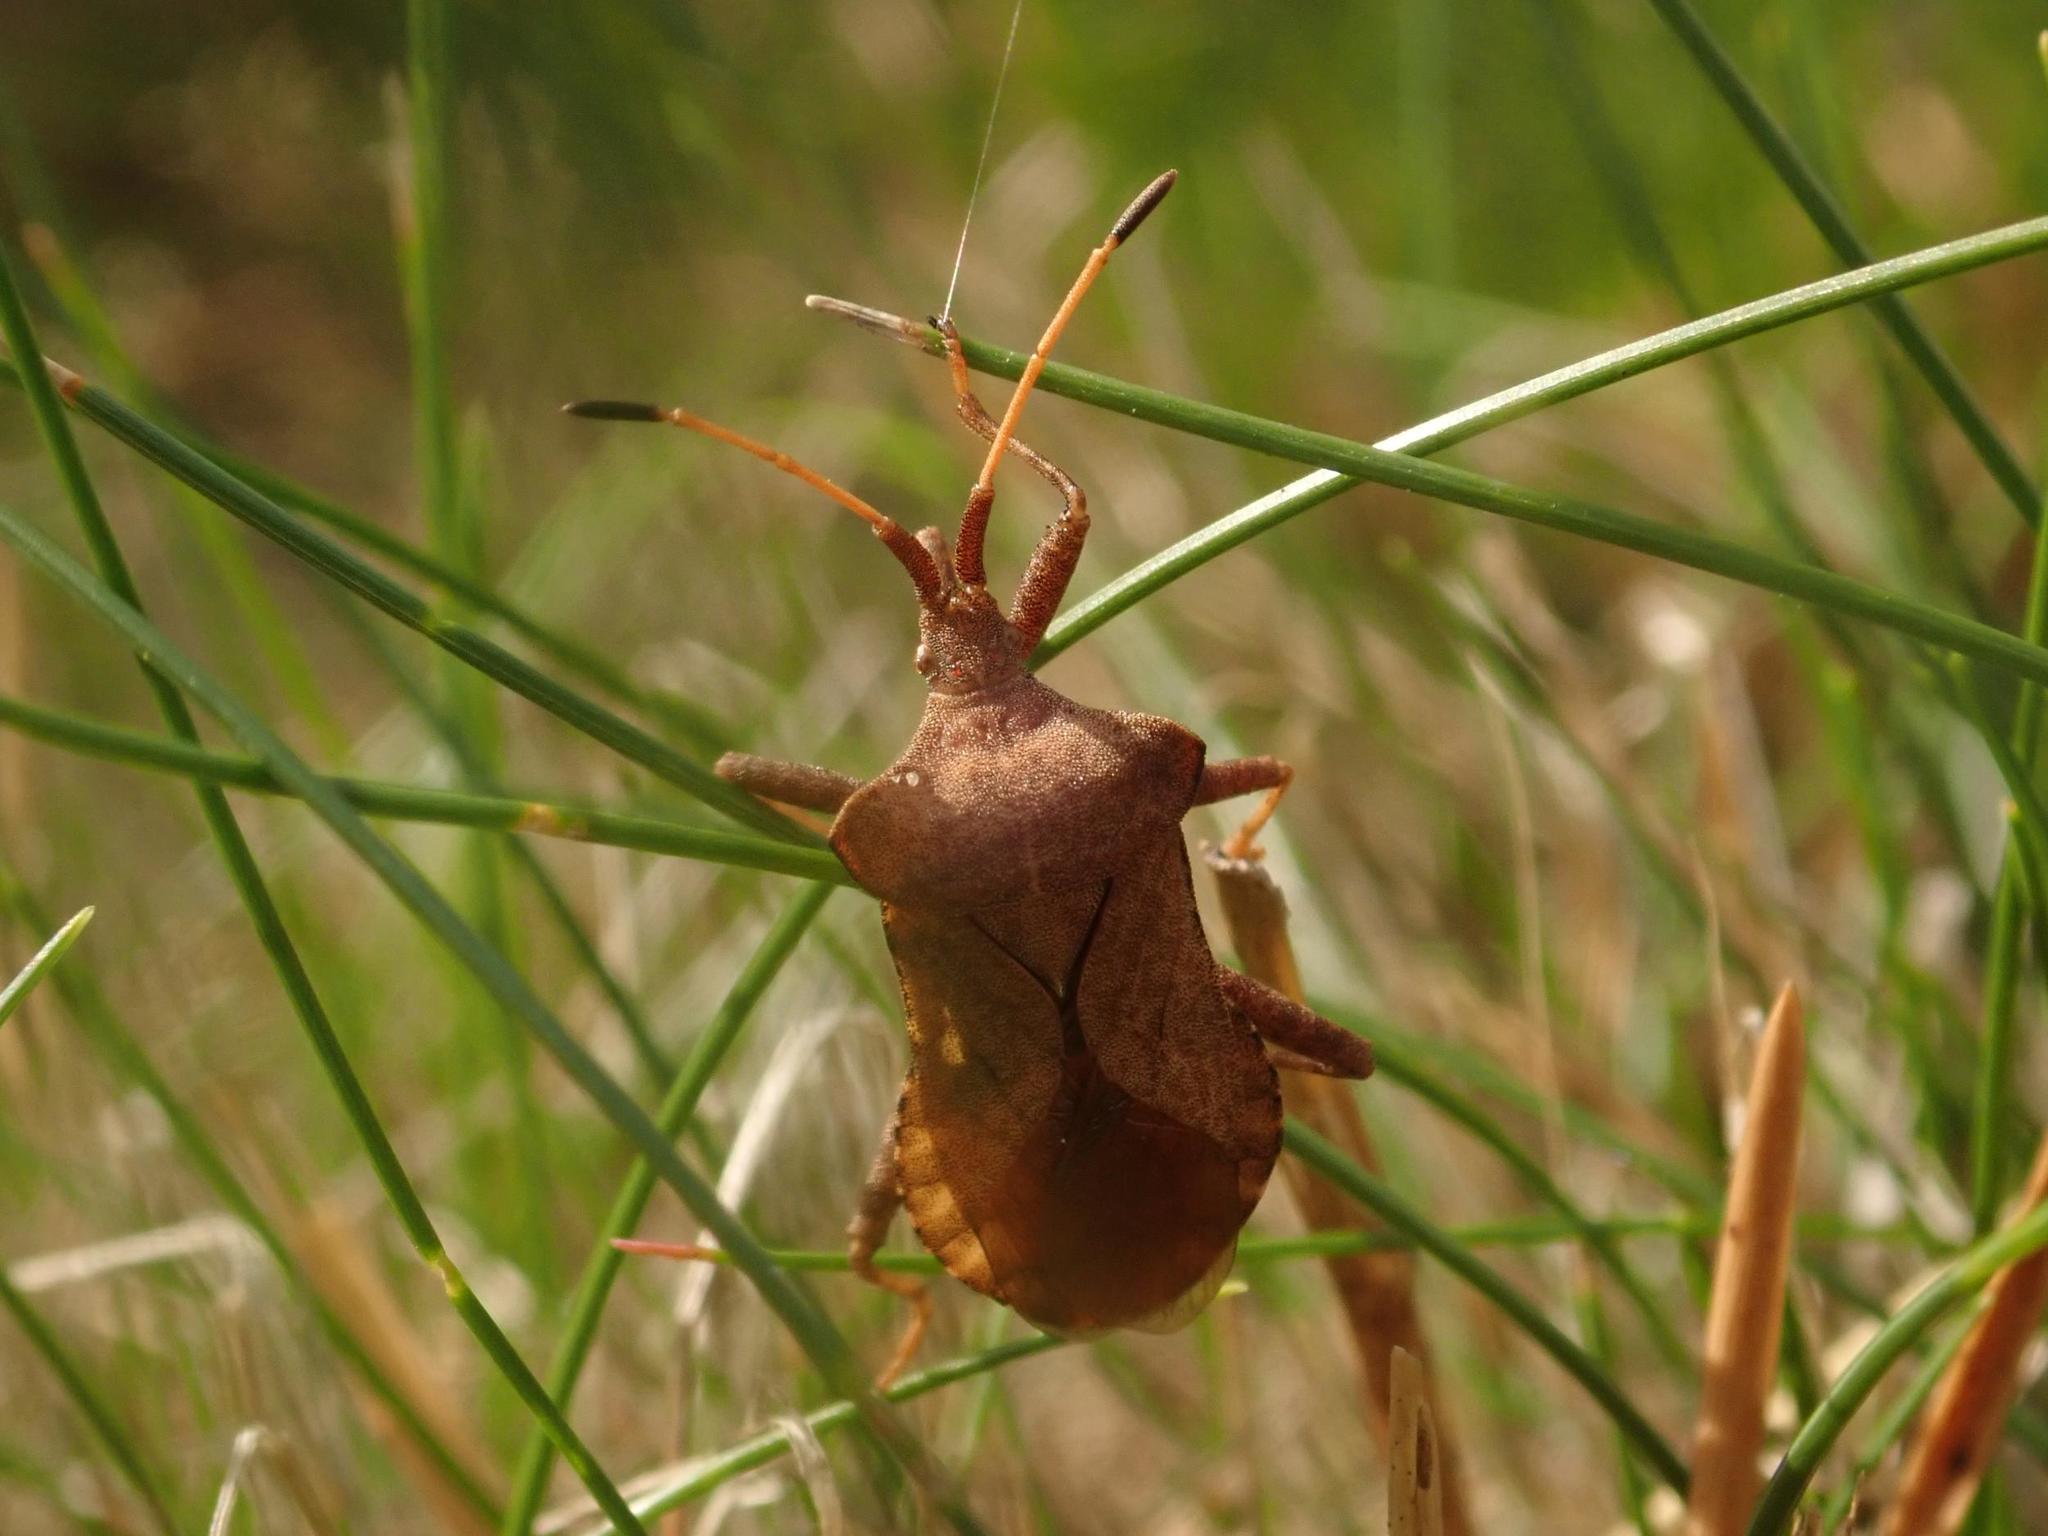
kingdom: Animalia
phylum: Arthropoda
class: Insecta
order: Hemiptera
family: Coreidae
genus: Coreus
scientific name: Coreus marginatus
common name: Dock bug
